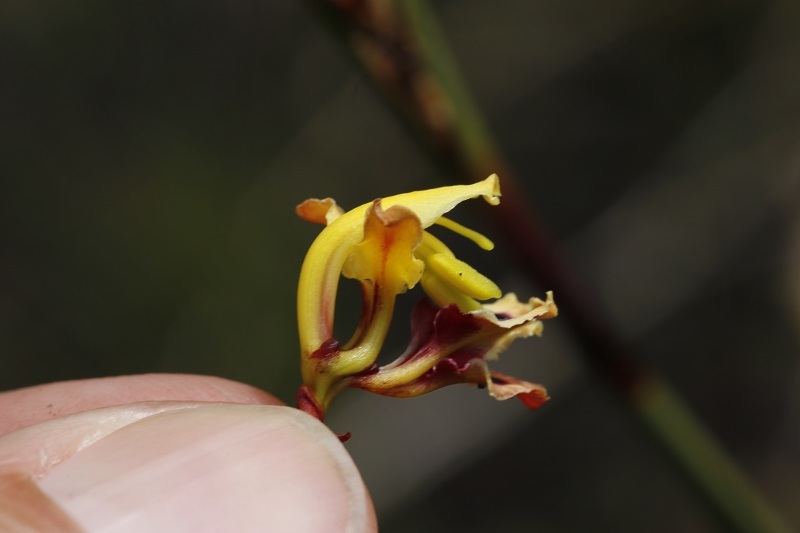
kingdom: Plantae
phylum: Tracheophyta
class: Liliopsida
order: Asparagales
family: Iridaceae
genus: Tritoniopsis
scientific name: Tritoniopsis parviflora
